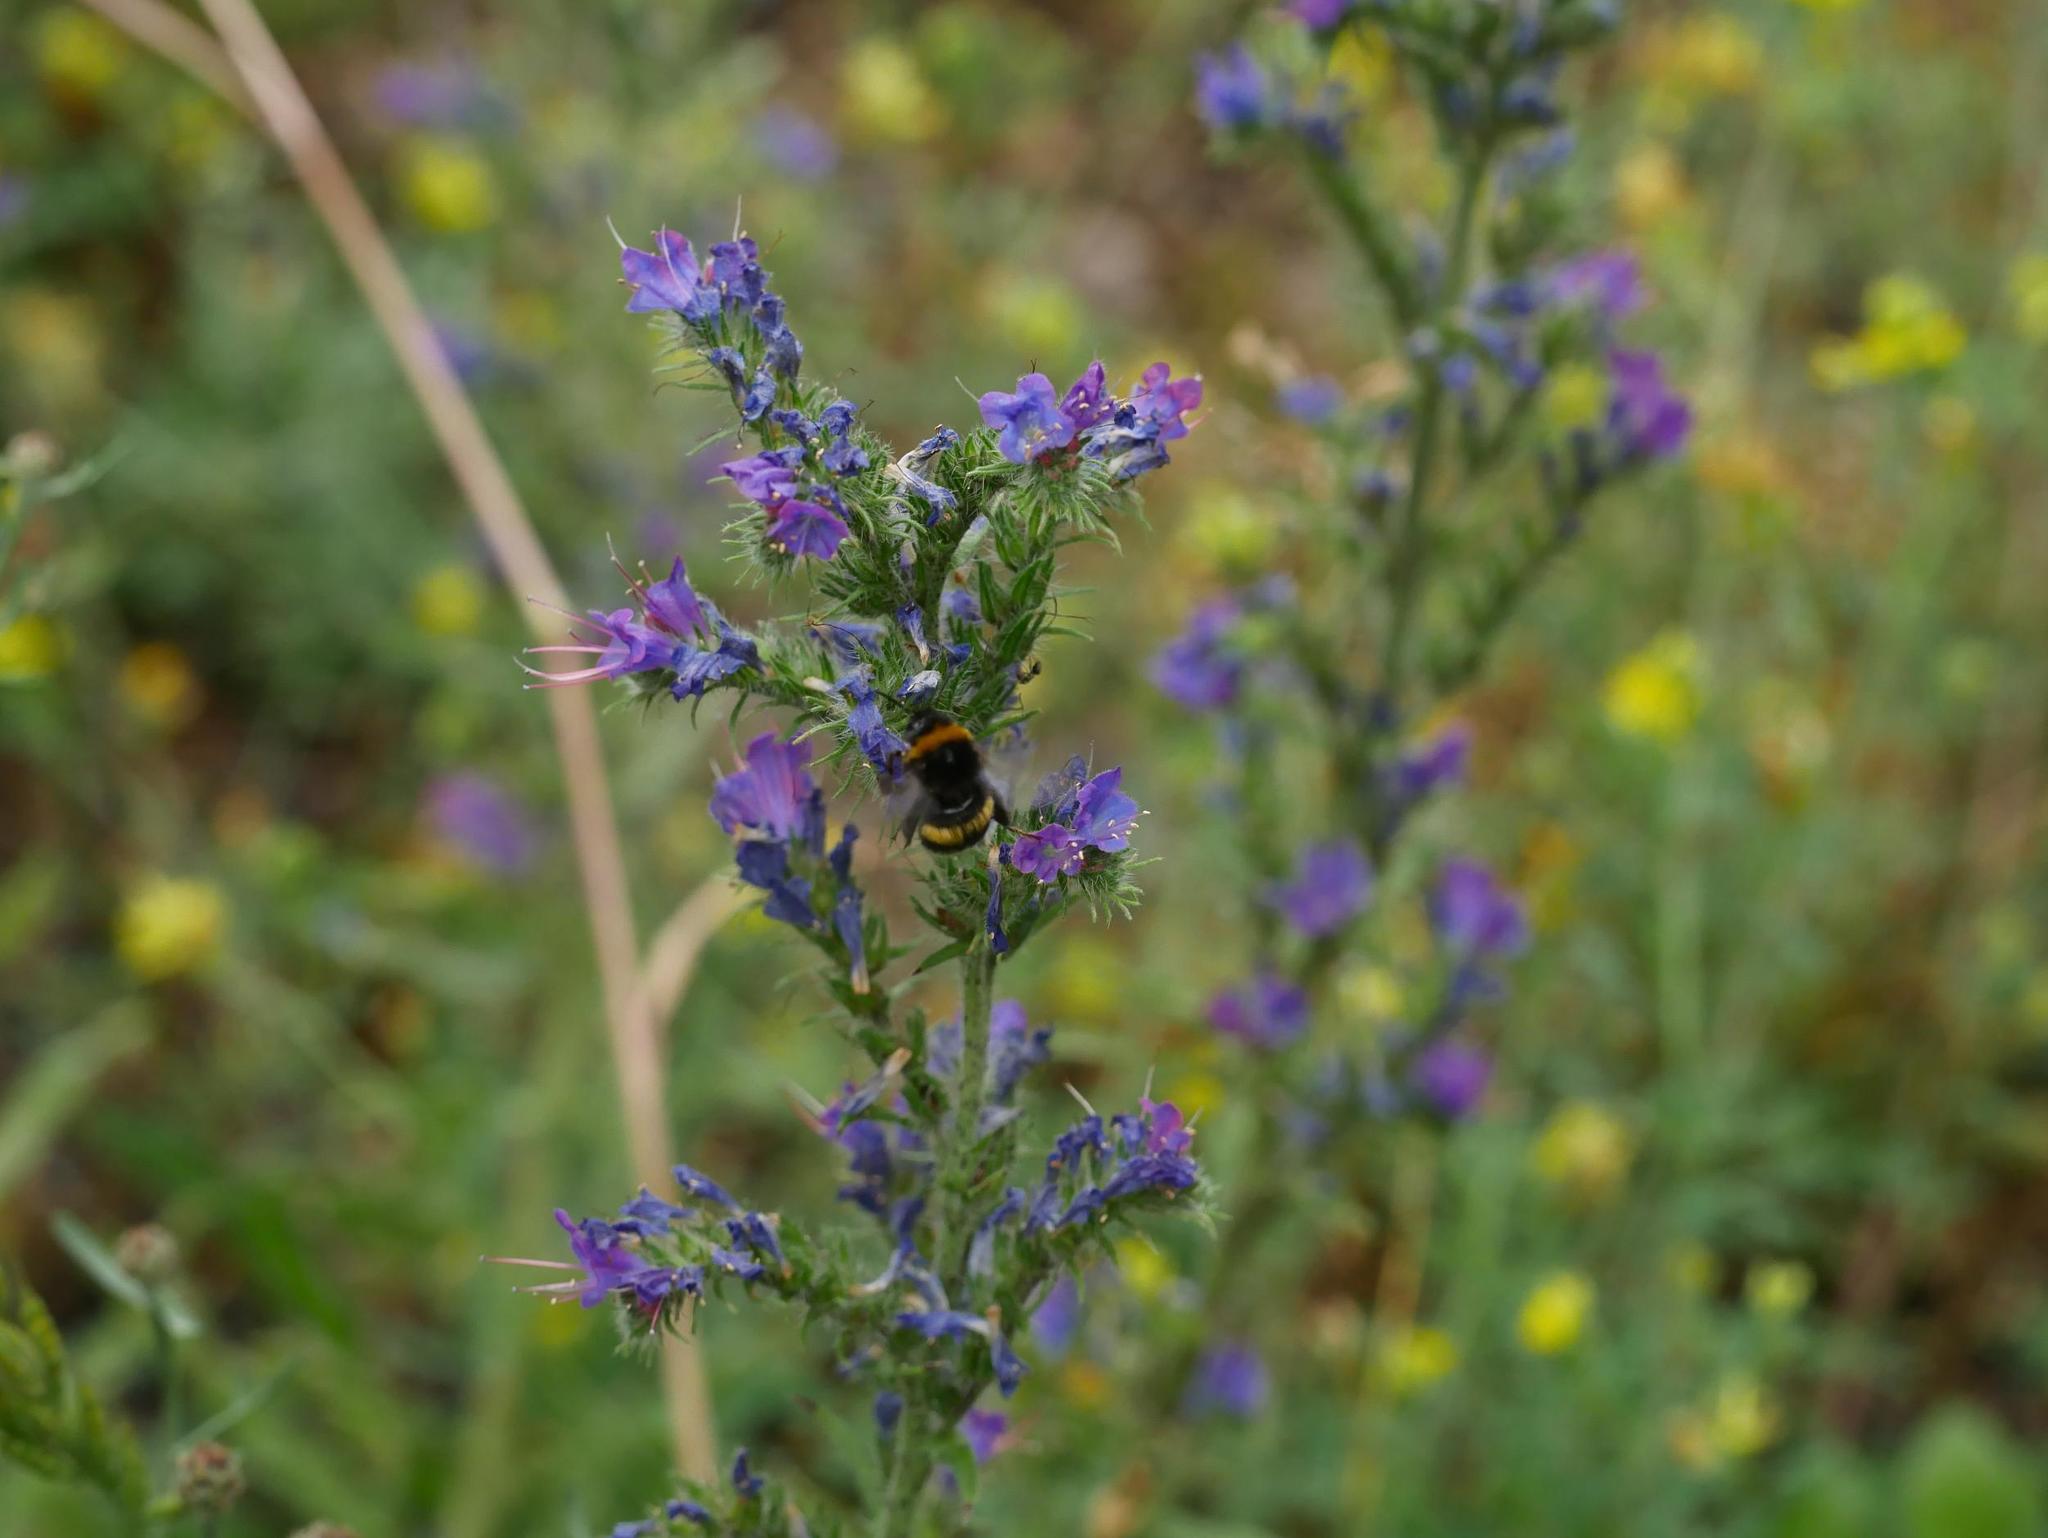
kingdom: Plantae
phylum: Tracheophyta
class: Magnoliopsida
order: Boraginales
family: Boraginaceae
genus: Echium
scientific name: Echium vulgare
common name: Common viper's bugloss
